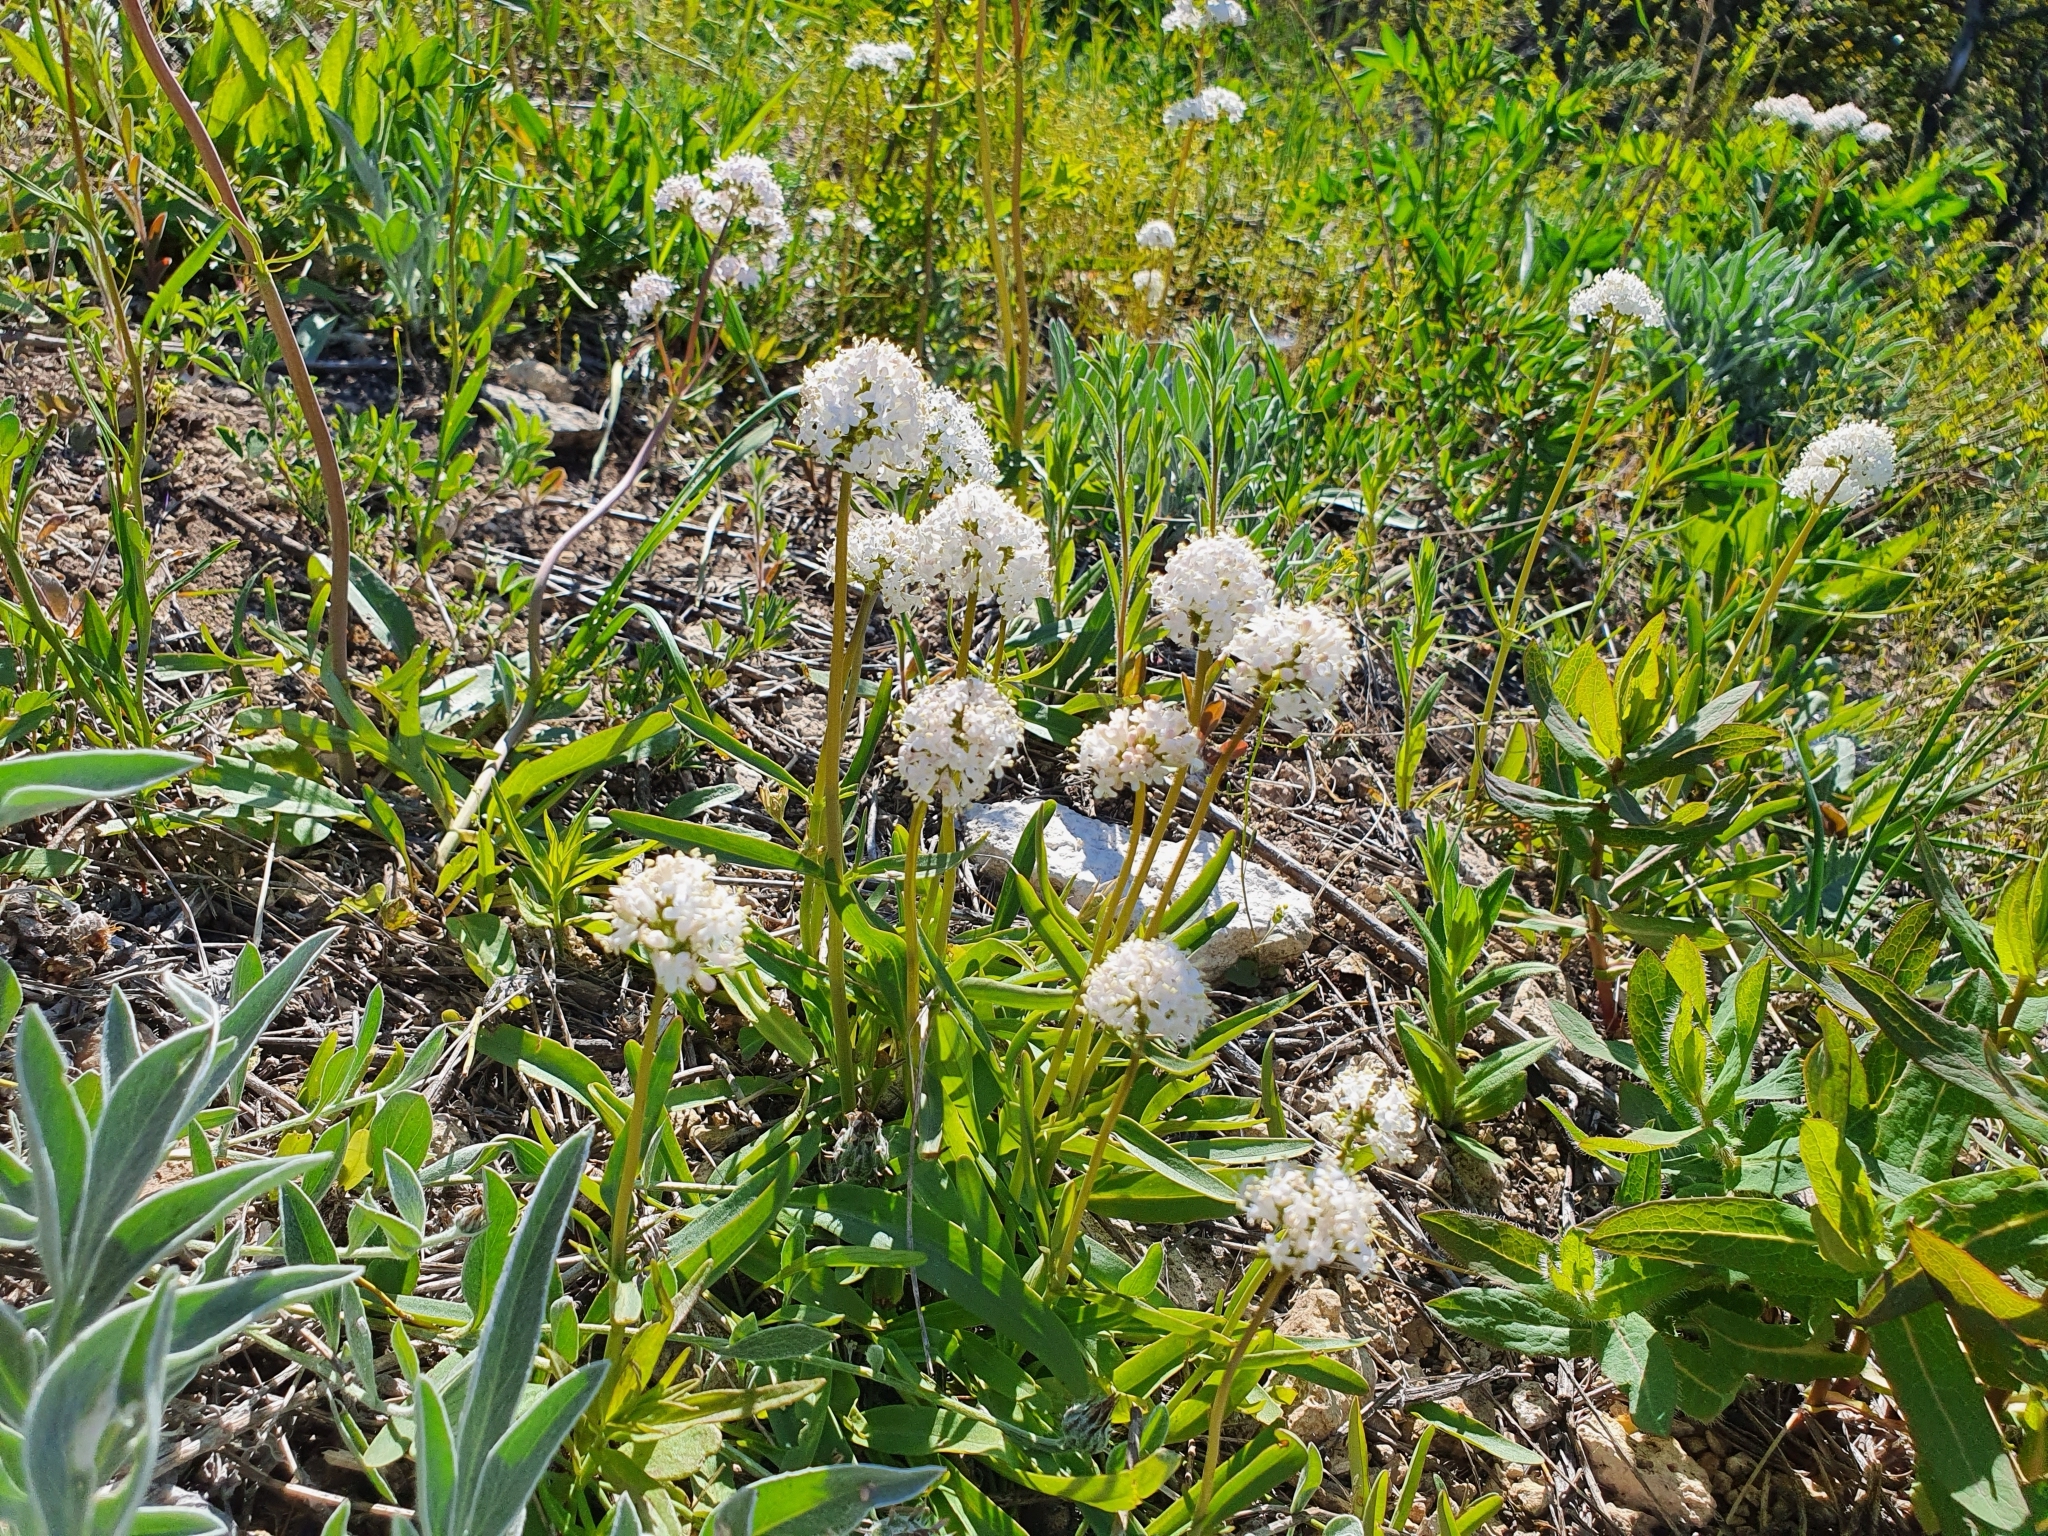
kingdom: Plantae
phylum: Tracheophyta
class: Magnoliopsida
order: Dipsacales
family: Caprifoliaceae
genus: Valeriana
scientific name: Valeriana tuberosa
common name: Tuberous valerian
